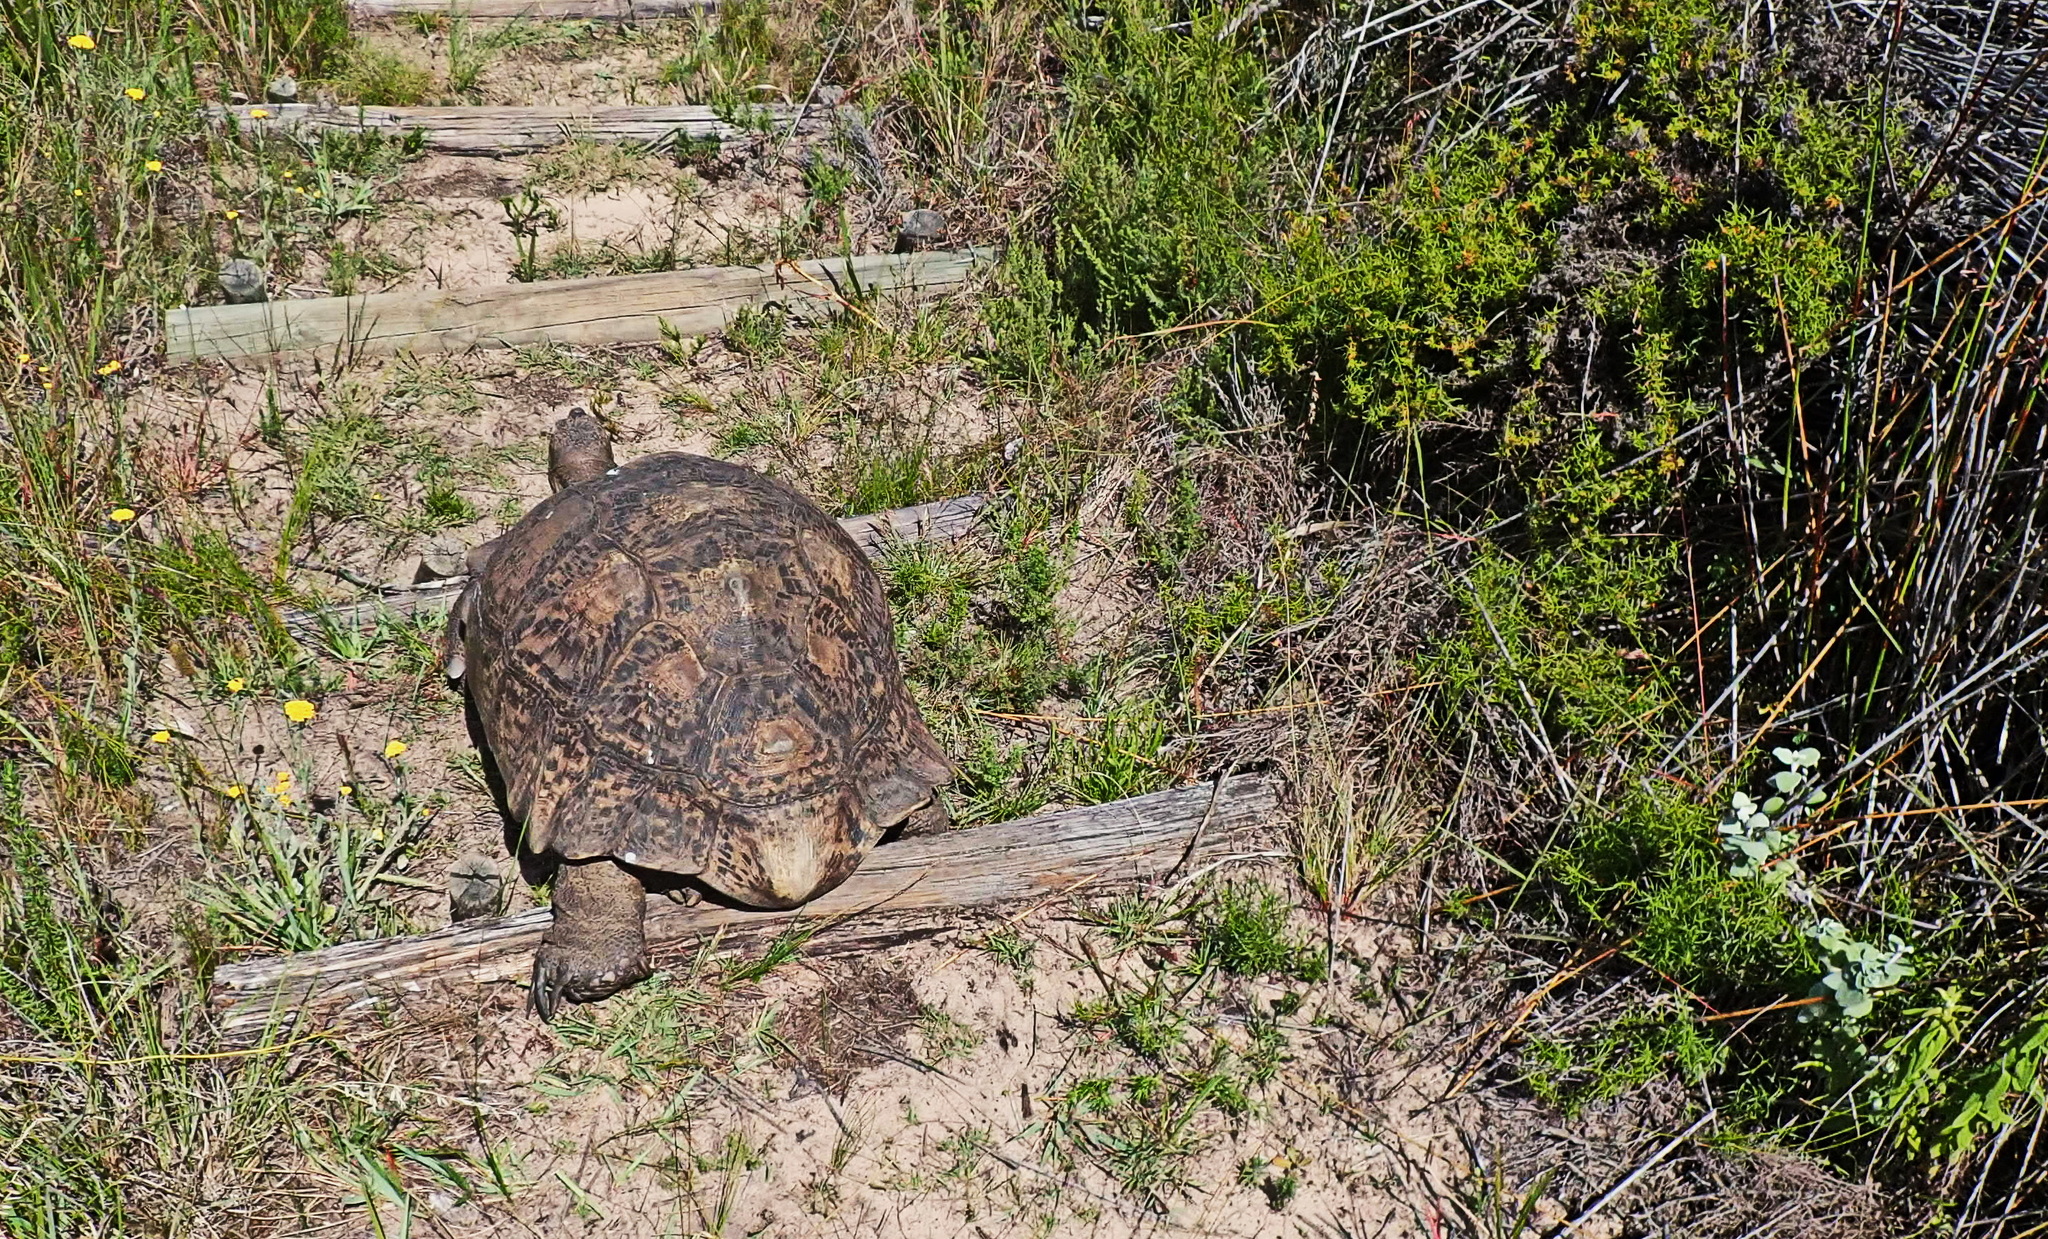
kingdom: Animalia
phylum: Chordata
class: Testudines
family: Testudinidae
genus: Stigmochelys
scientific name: Stigmochelys pardalis
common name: Leopard tortoise
